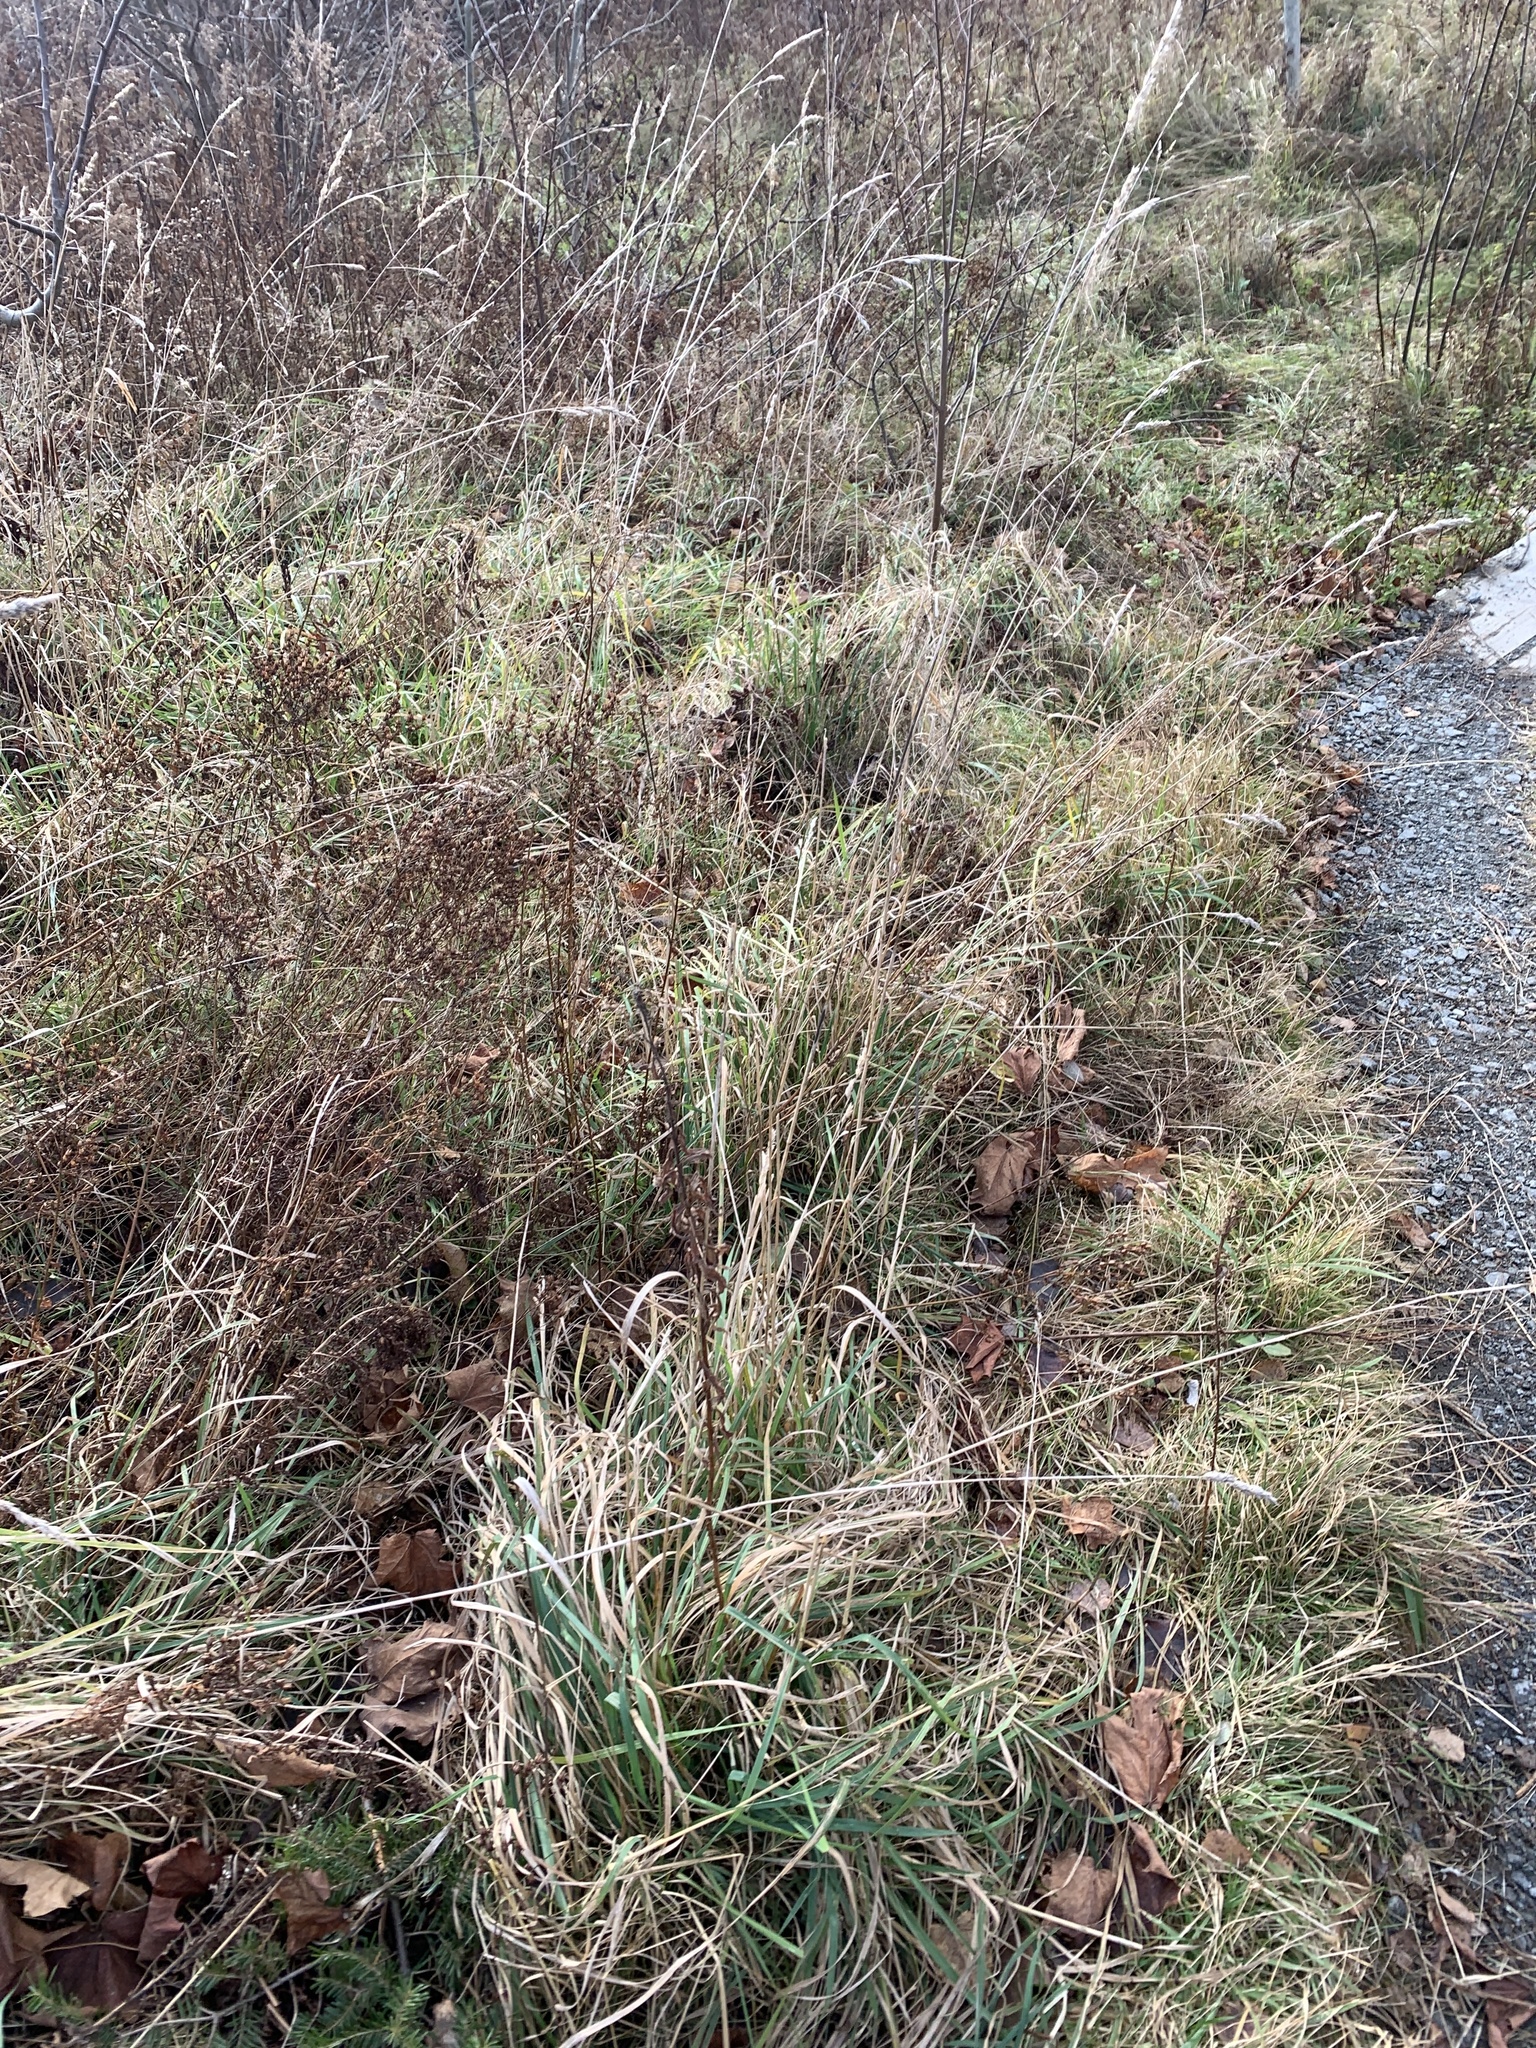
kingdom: Plantae
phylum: Tracheophyta
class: Liliopsida
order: Poales
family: Poaceae
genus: Dactylis
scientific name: Dactylis glomerata
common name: Orchardgrass
